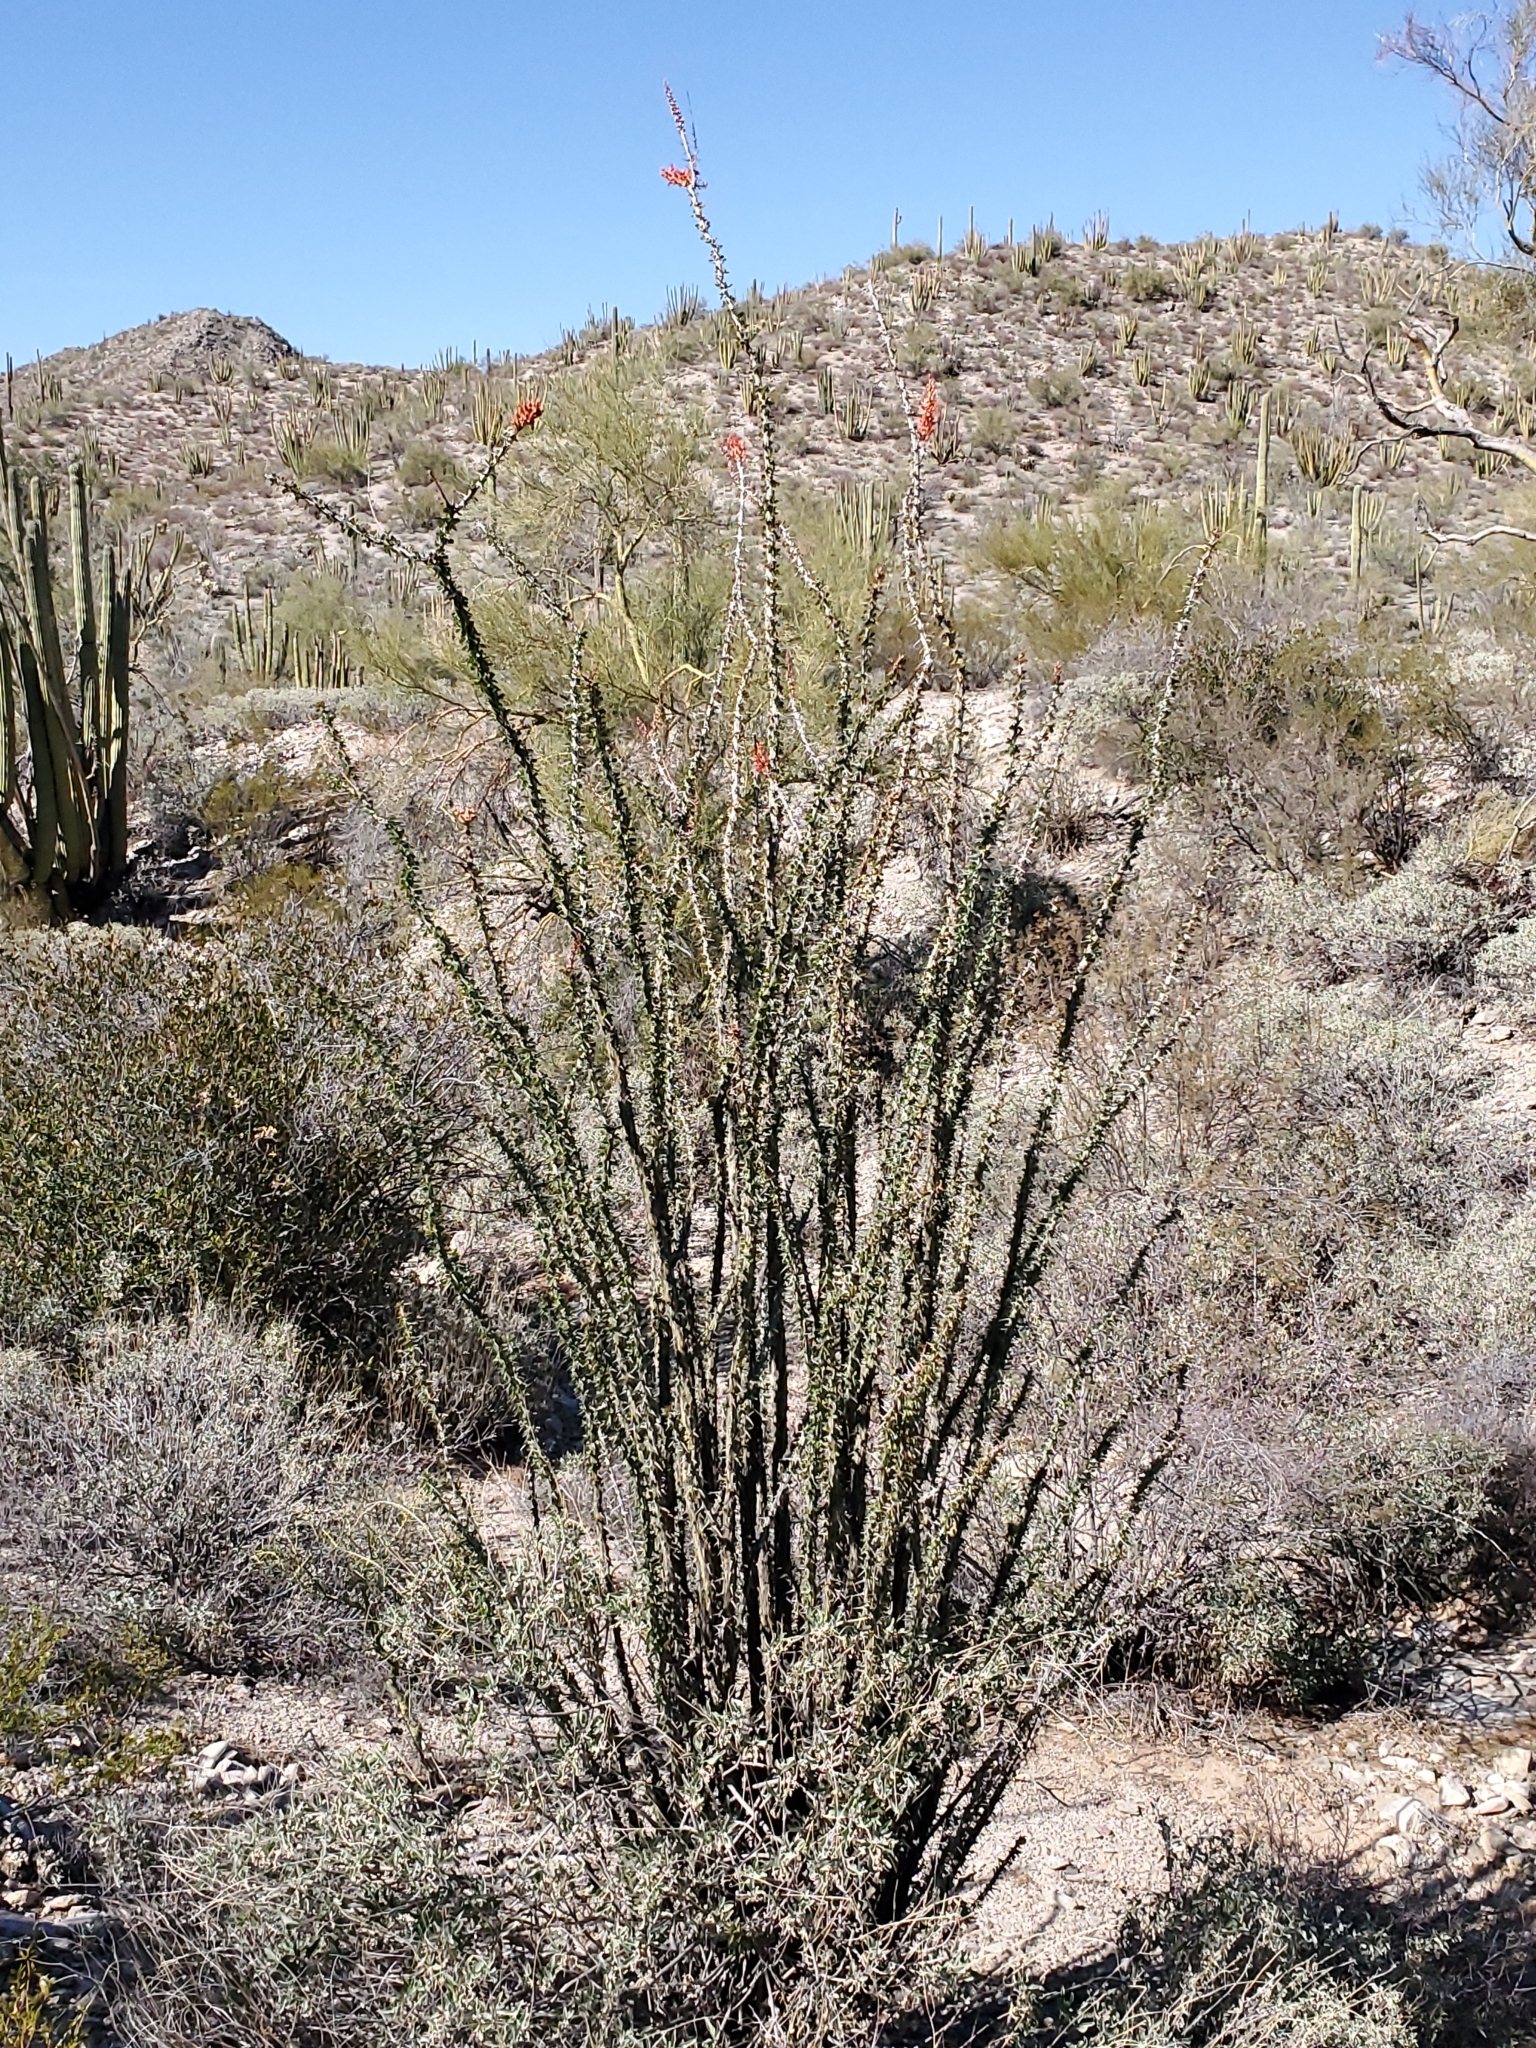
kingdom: Plantae
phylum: Tracheophyta
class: Magnoliopsida
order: Ericales
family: Fouquieriaceae
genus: Fouquieria
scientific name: Fouquieria splendens
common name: Vine-cactus
